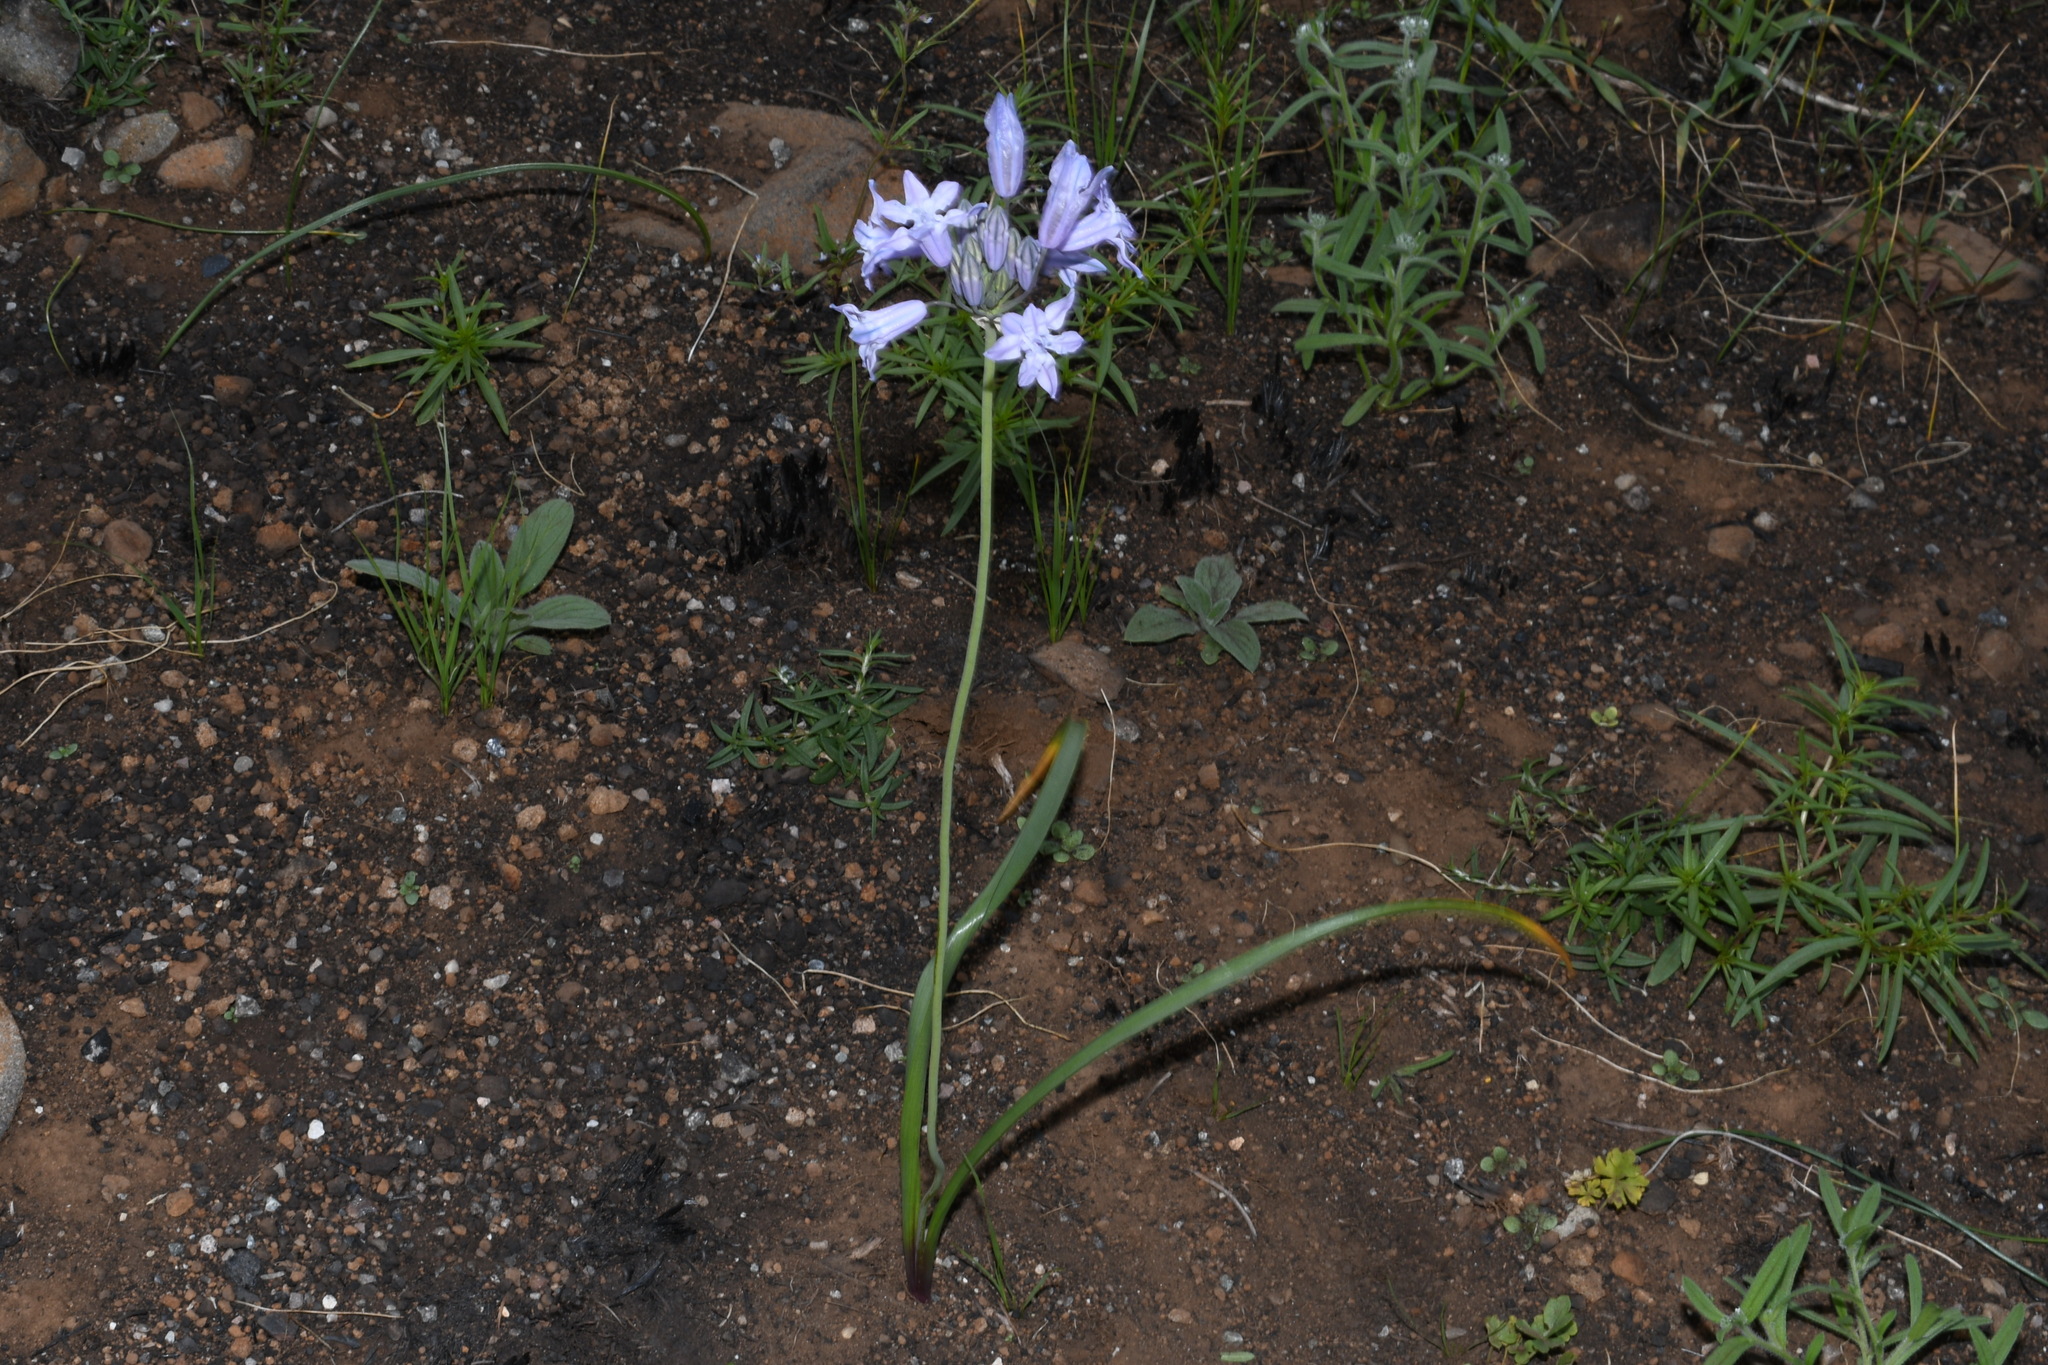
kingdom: Plantae
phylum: Tracheophyta
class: Liliopsida
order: Asparagales
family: Asparagaceae
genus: Triteleia
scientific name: Triteleia grandiflora
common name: Wild hyacinth
